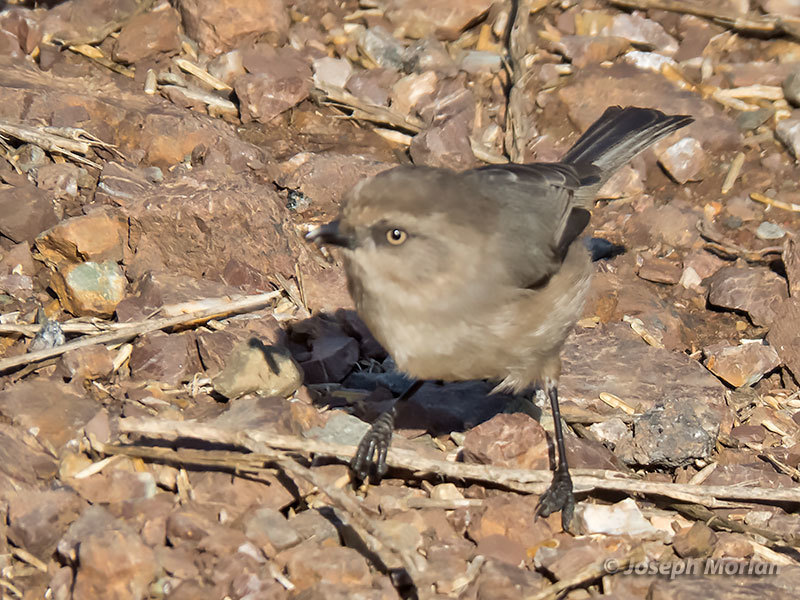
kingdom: Animalia
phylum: Chordata
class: Aves
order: Passeriformes
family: Aegithalidae
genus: Psaltriparus
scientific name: Psaltriparus minimus
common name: American bushtit
